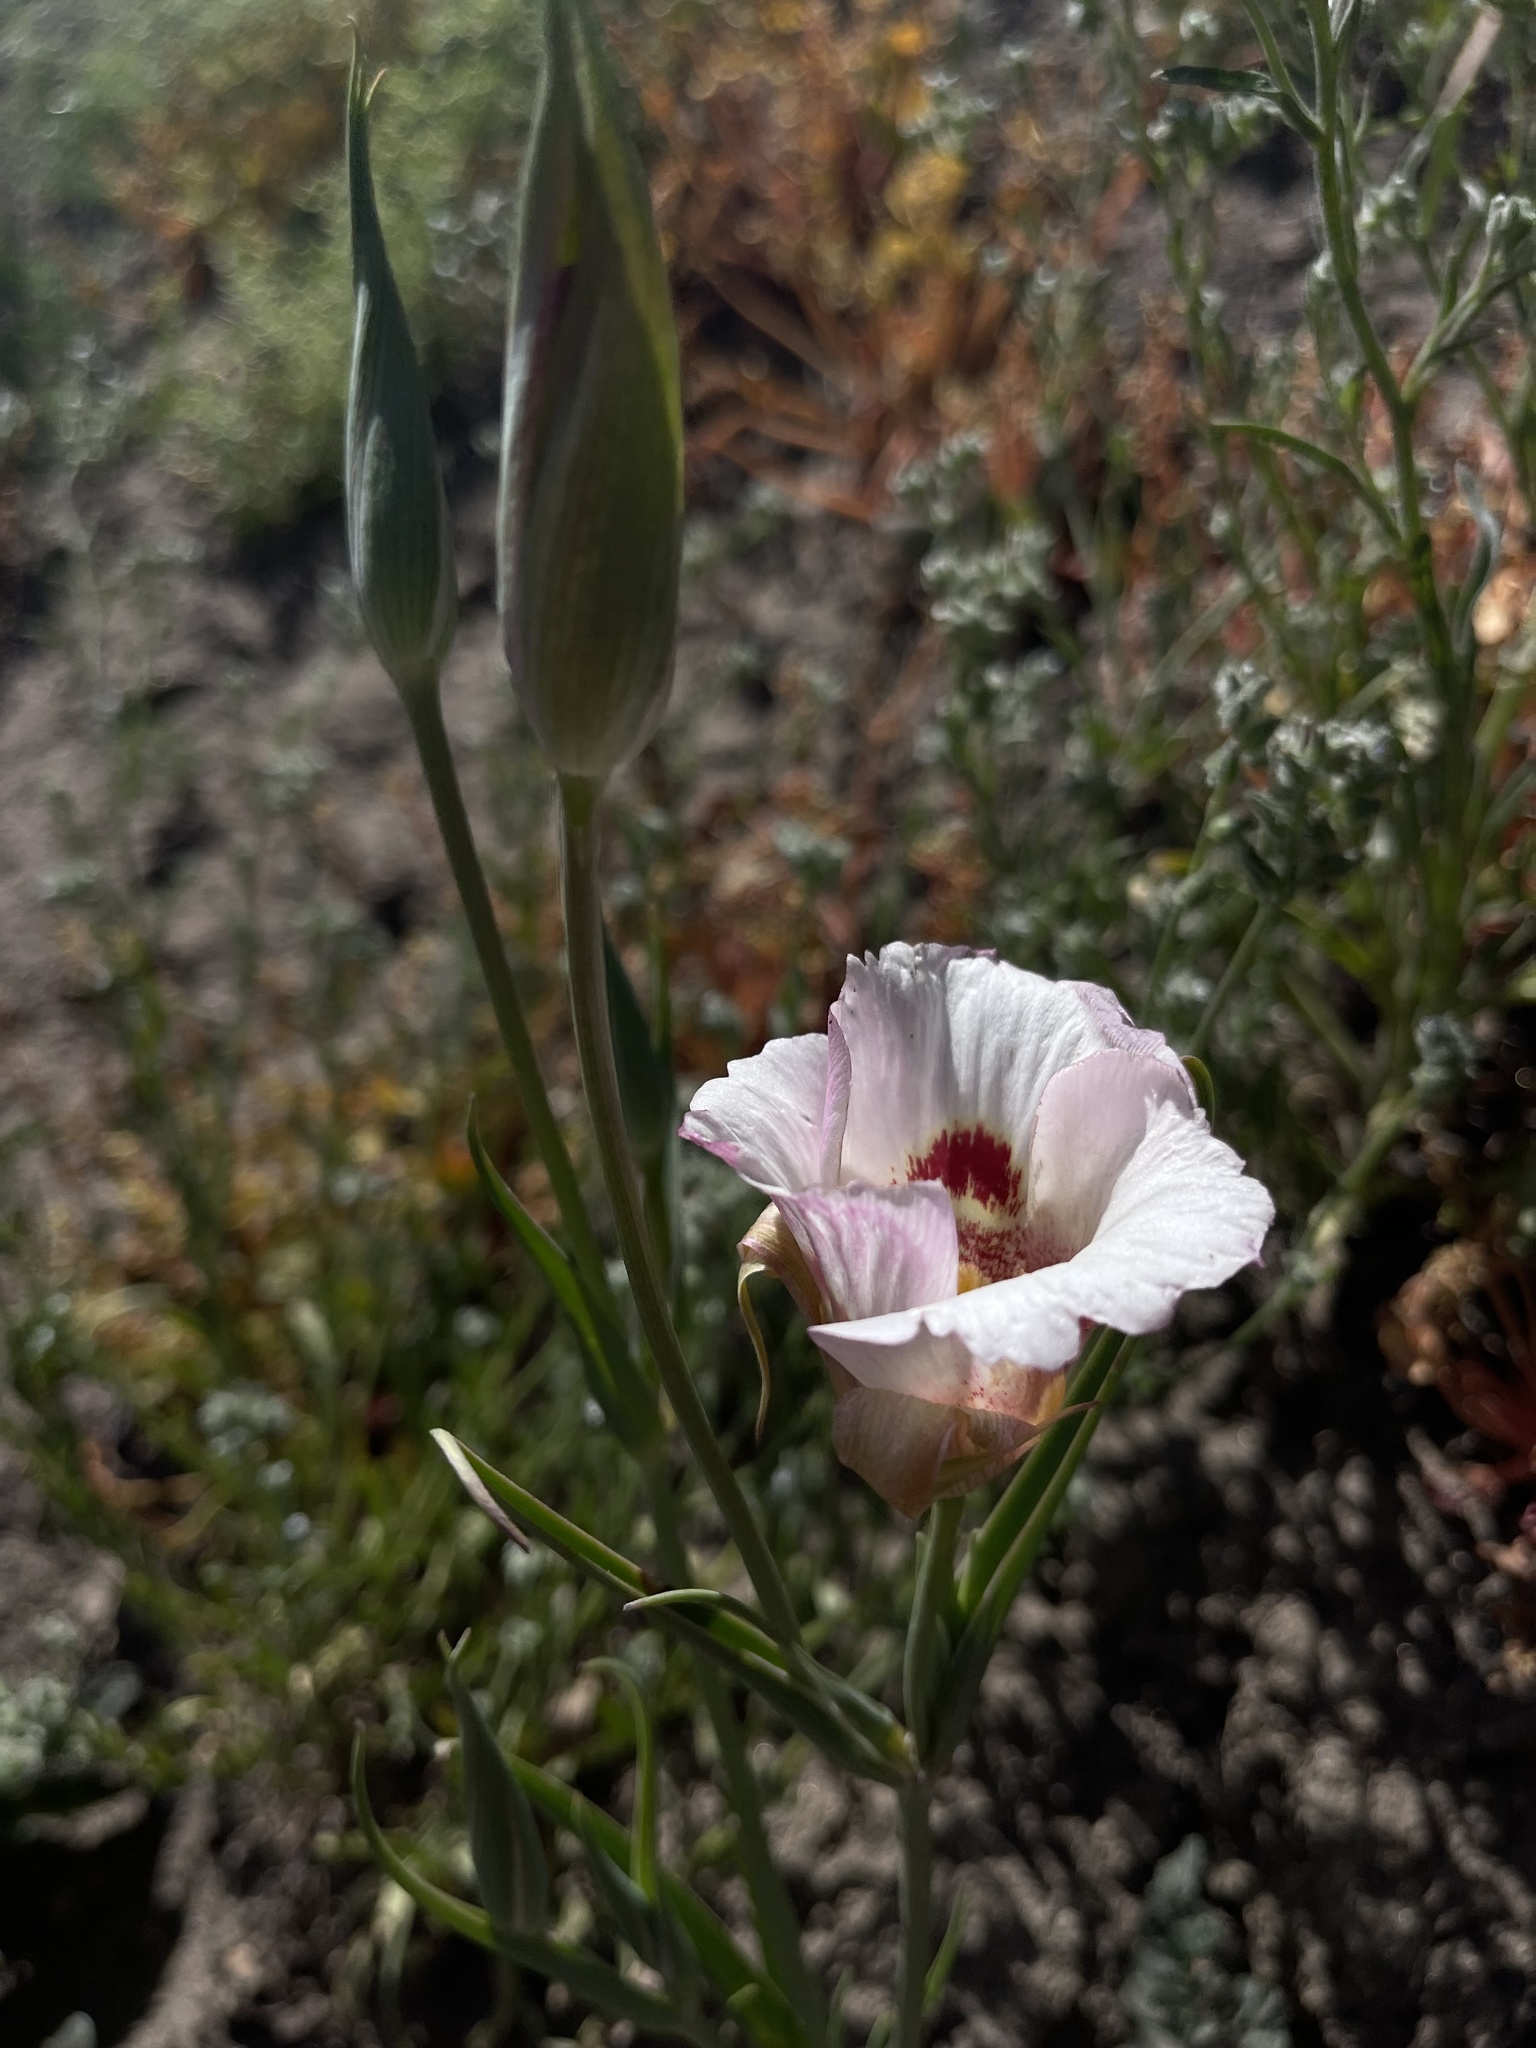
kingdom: Plantae
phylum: Tracheophyta
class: Liliopsida
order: Liliales
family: Liliaceae
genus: Calochortus
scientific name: Calochortus venustus
